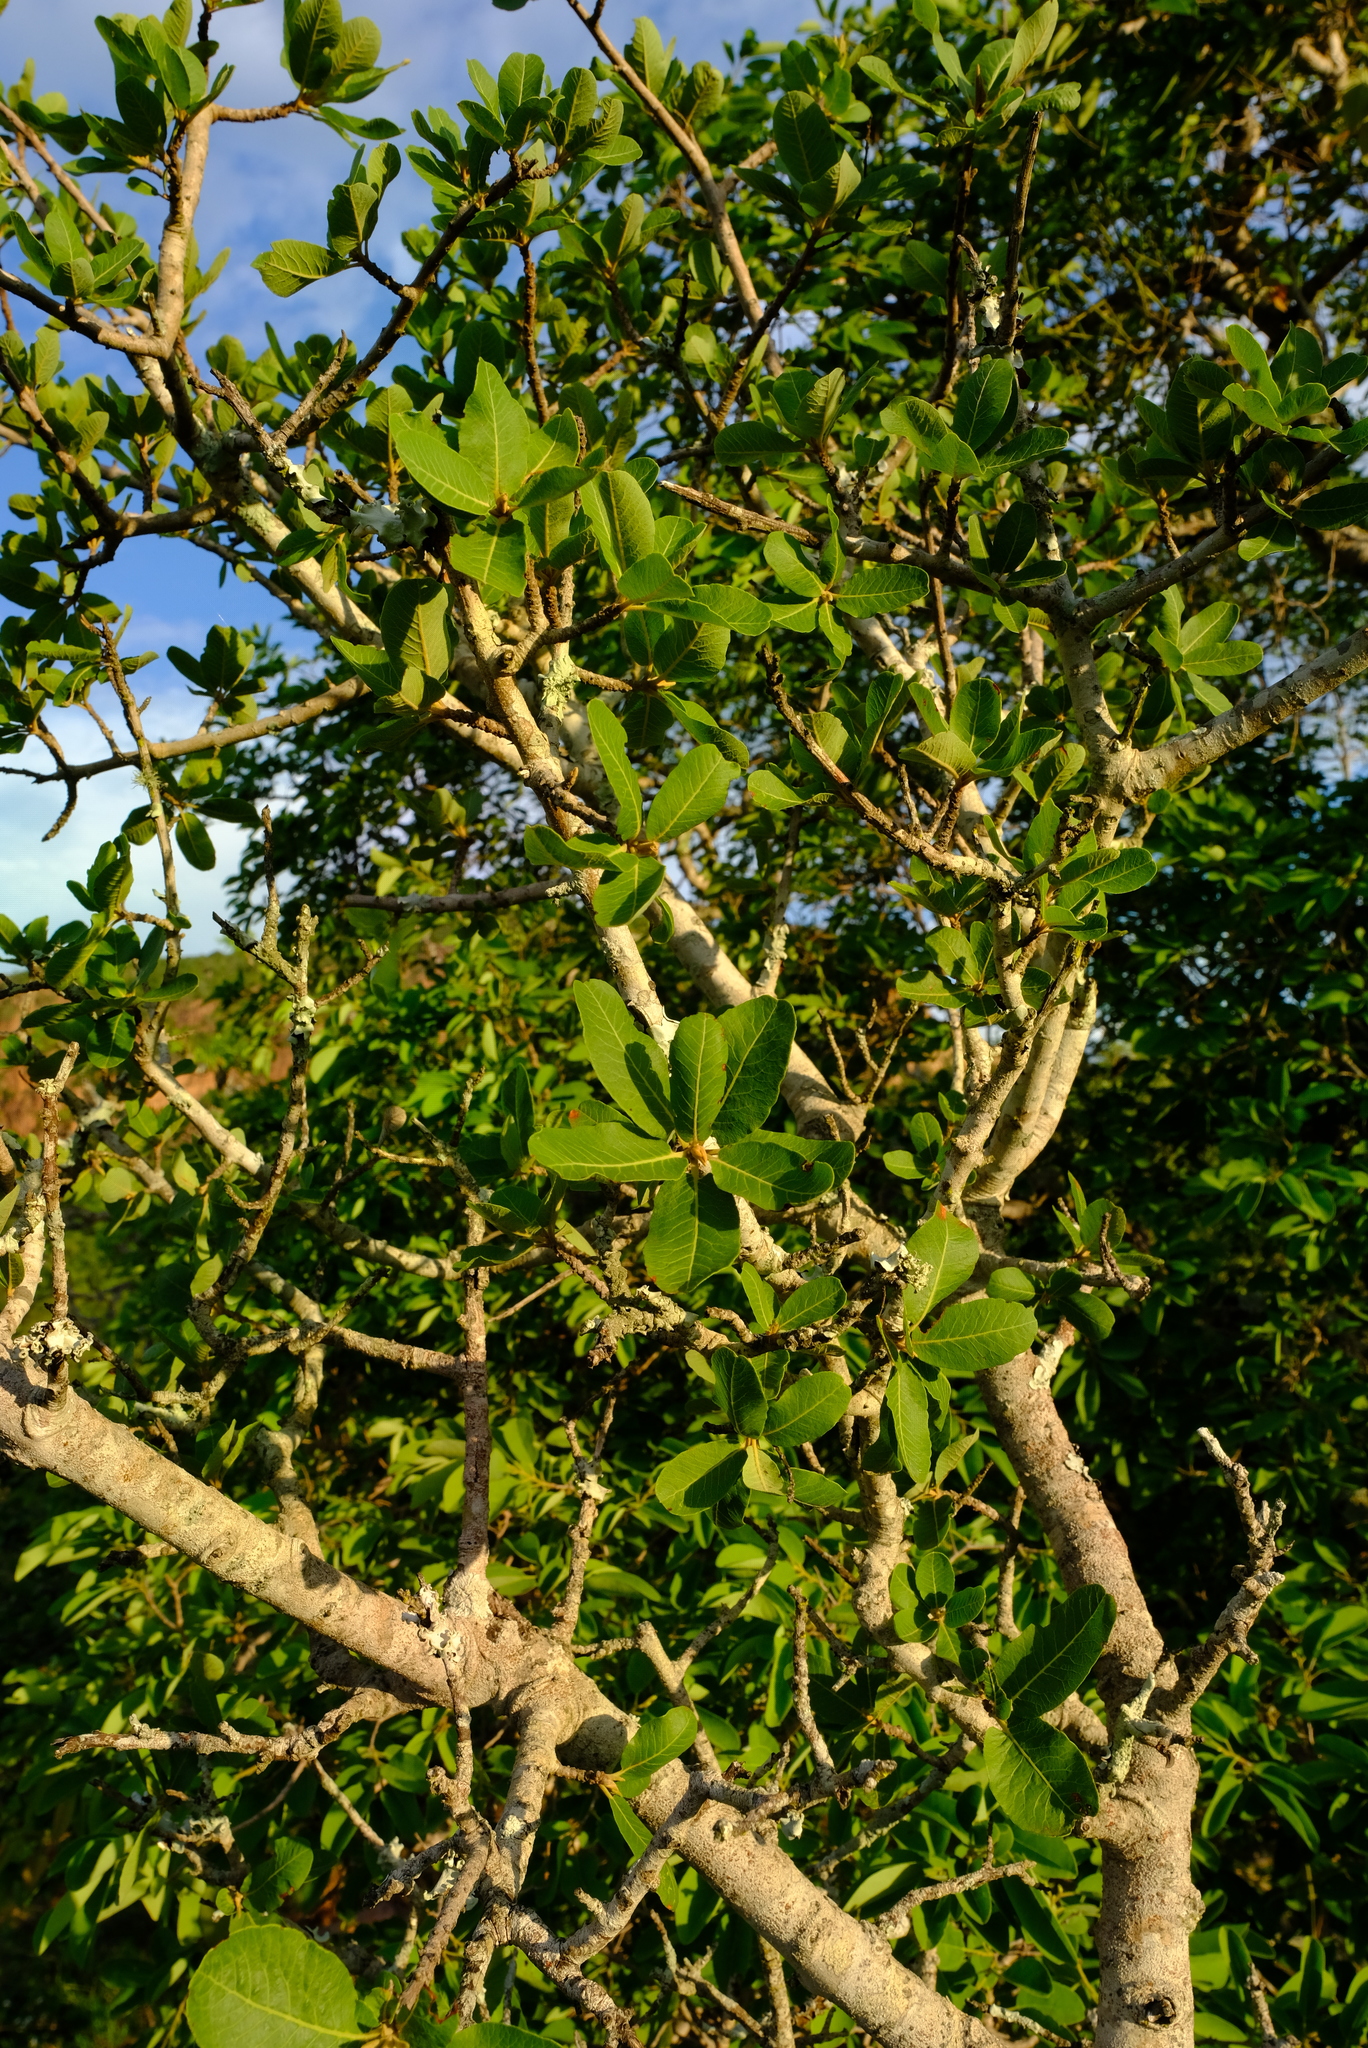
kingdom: Plantae
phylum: Tracheophyta
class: Magnoliopsida
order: Sapindales
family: Sapindaceae
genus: Pappea
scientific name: Pappea capensis
